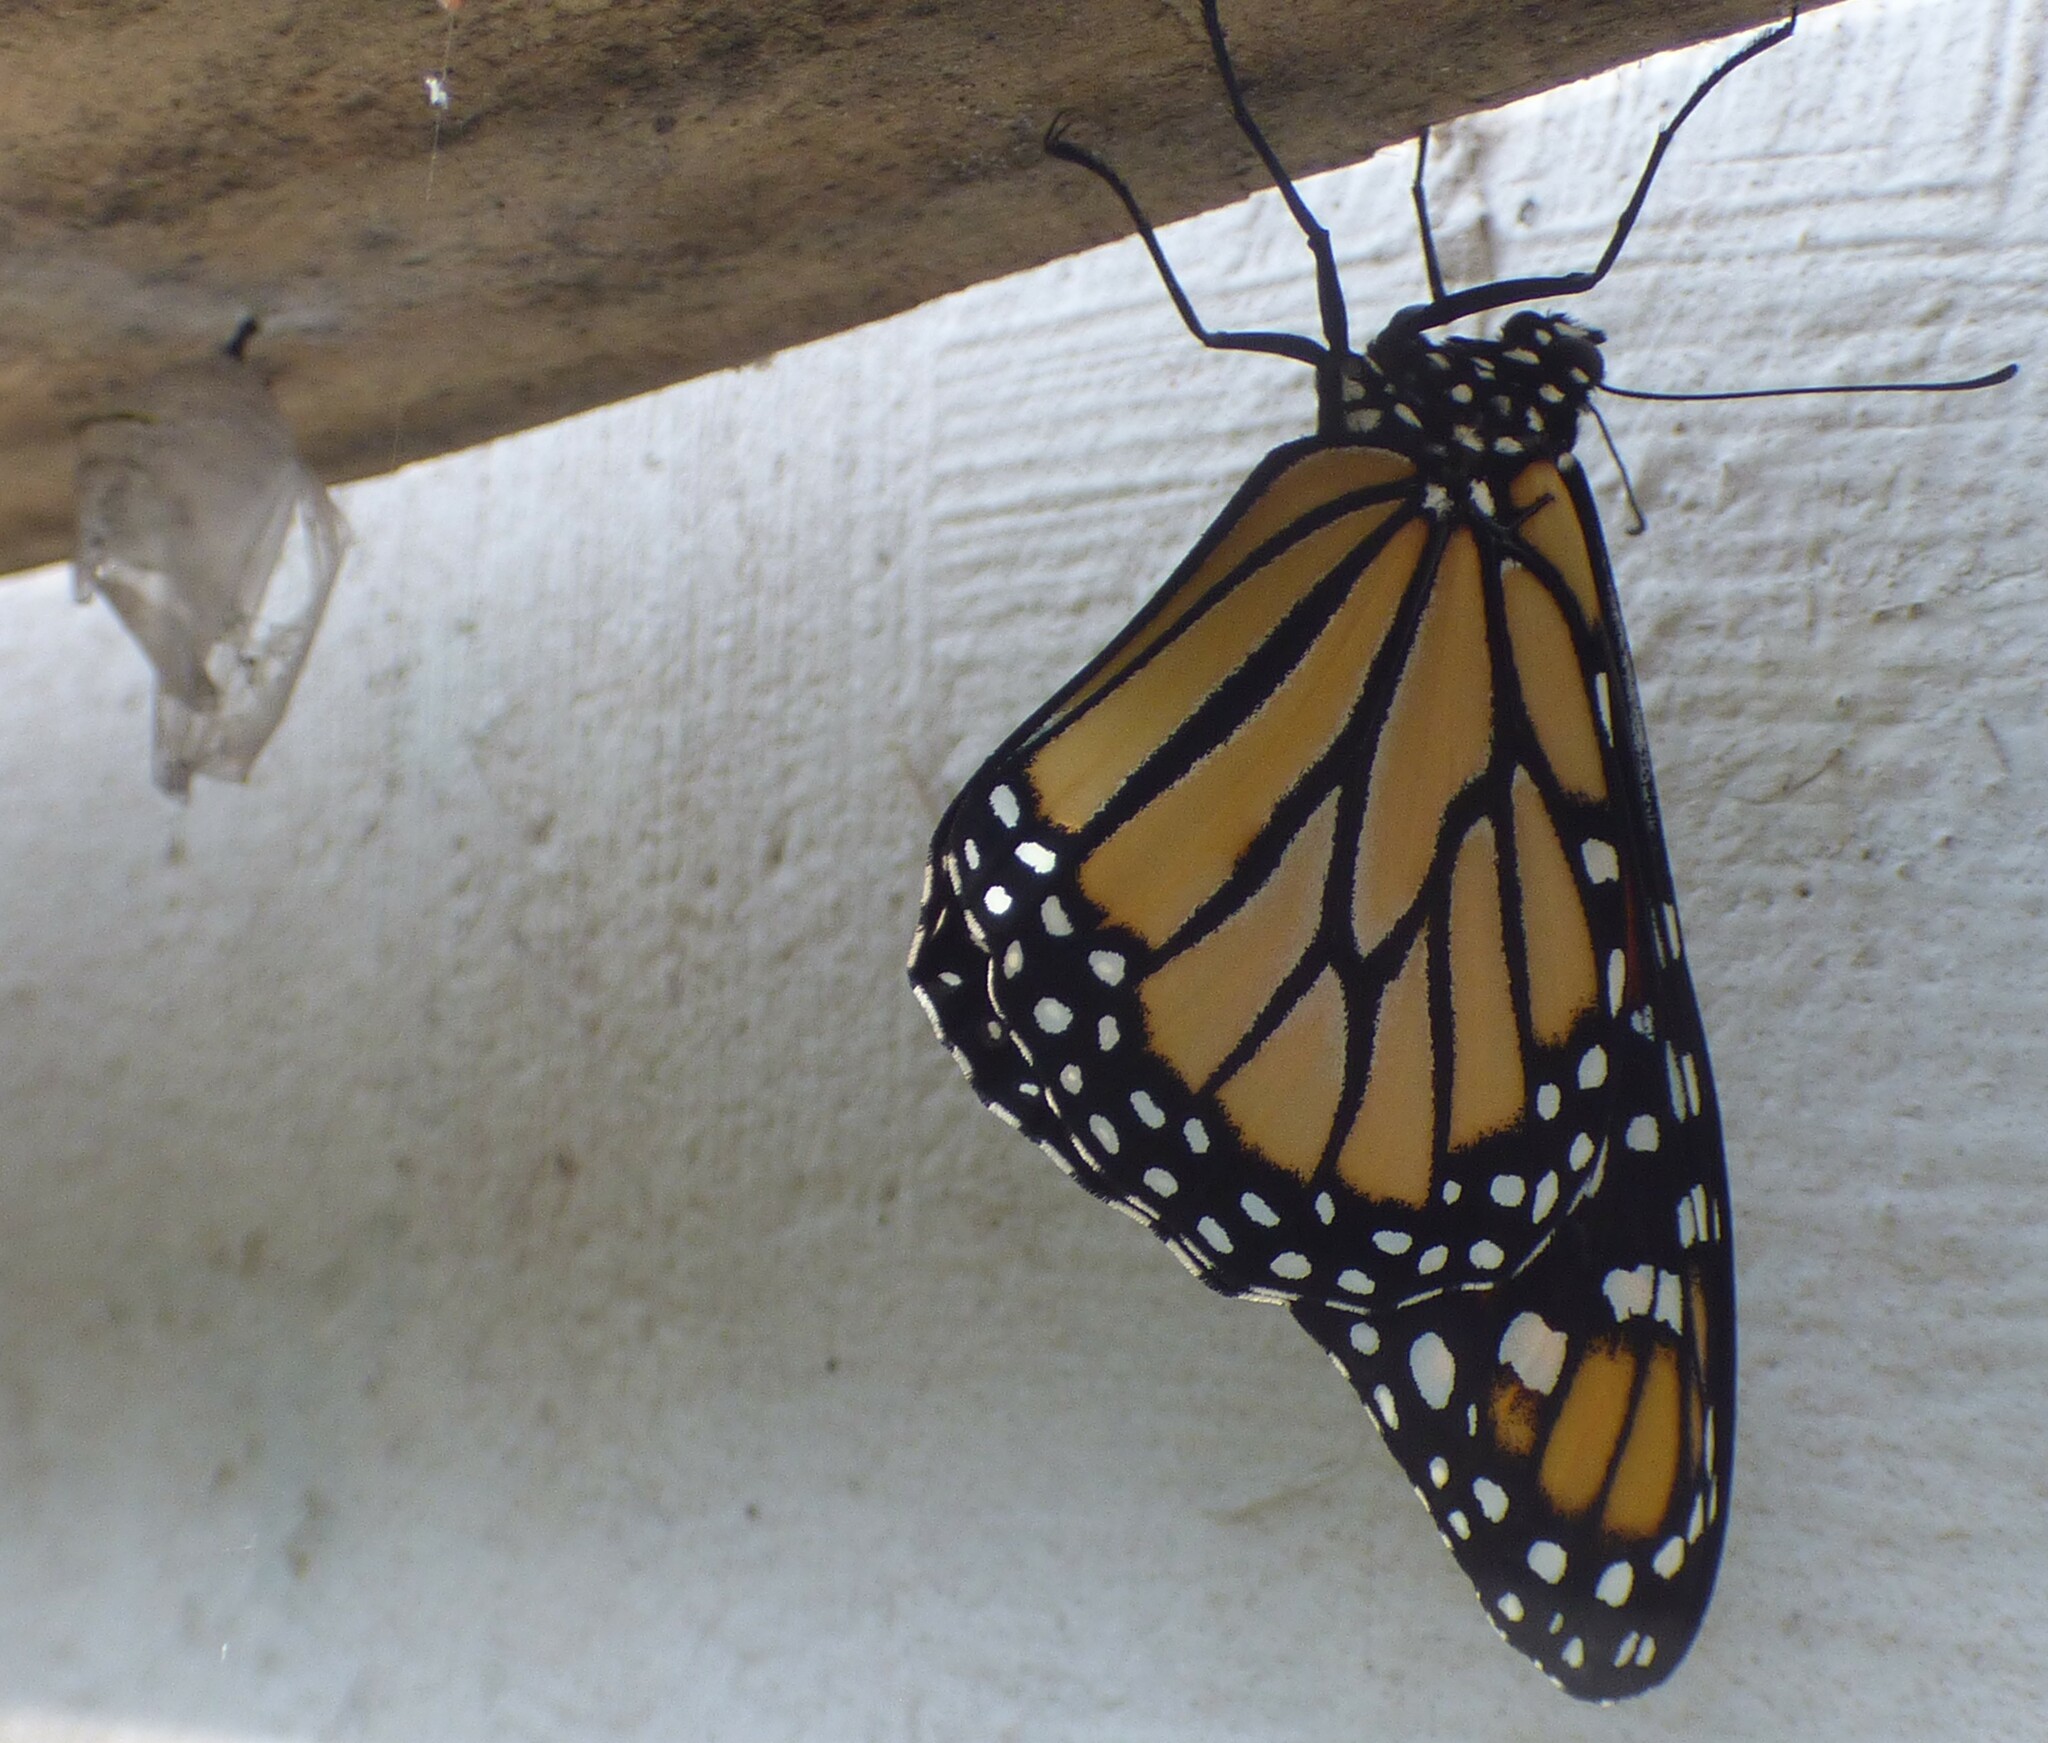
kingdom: Animalia
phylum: Arthropoda
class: Insecta
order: Lepidoptera
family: Nymphalidae
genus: Danaus
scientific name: Danaus plexippus
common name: Monarch
